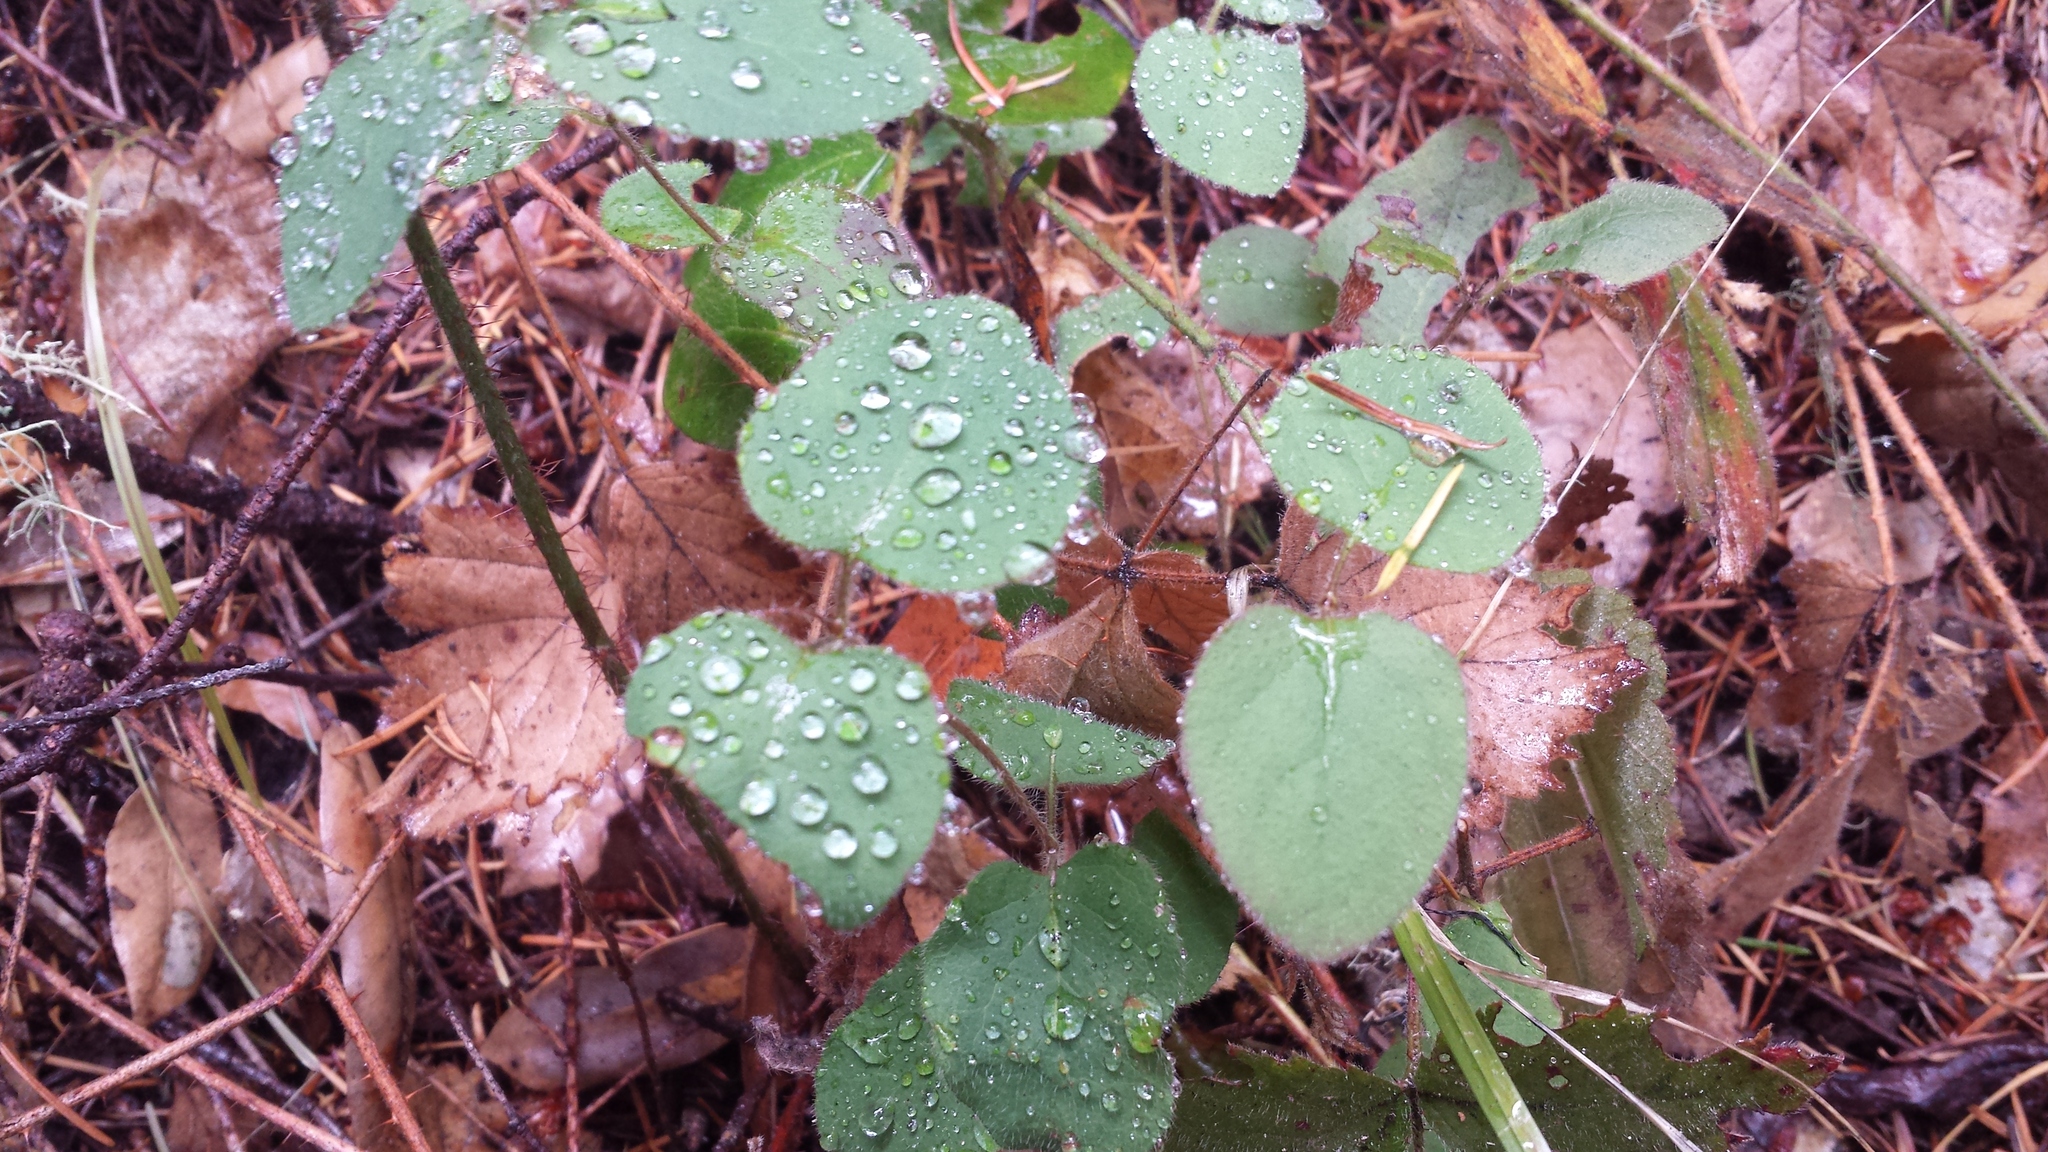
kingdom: Plantae
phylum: Tracheophyta
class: Magnoliopsida
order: Dipsacales
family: Caprifoliaceae
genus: Lonicera
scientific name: Lonicera hispidula
